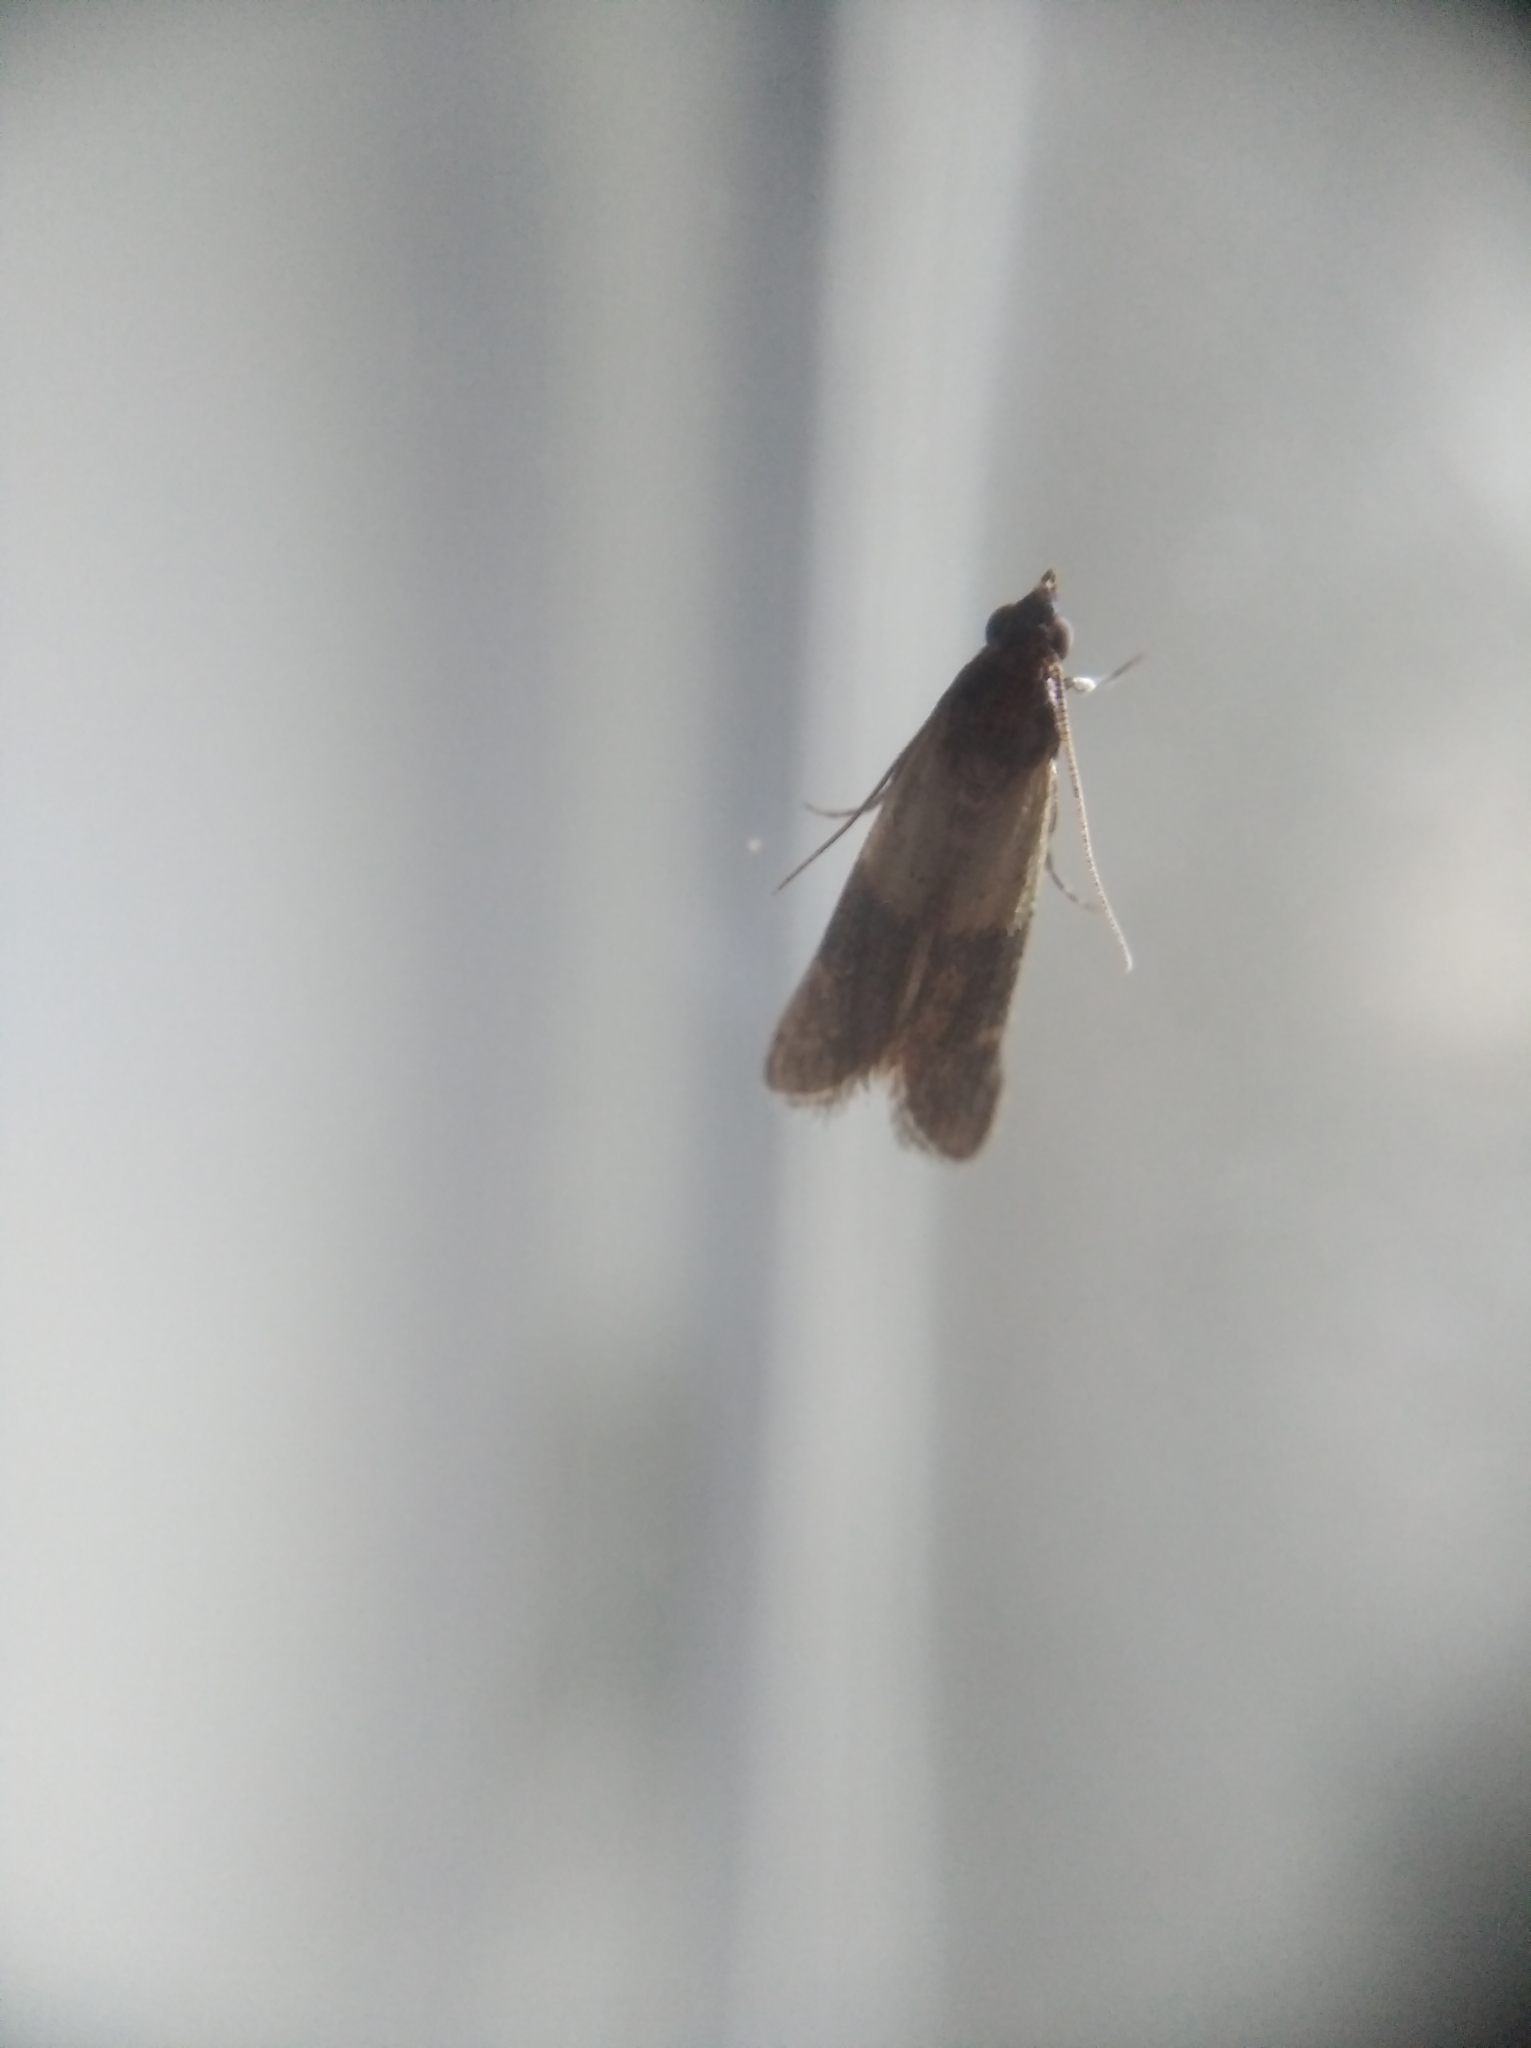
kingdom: Animalia
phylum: Arthropoda
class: Insecta
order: Lepidoptera
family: Pyralidae
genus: Plodia
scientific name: Plodia interpunctella
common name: Indian meal moth
